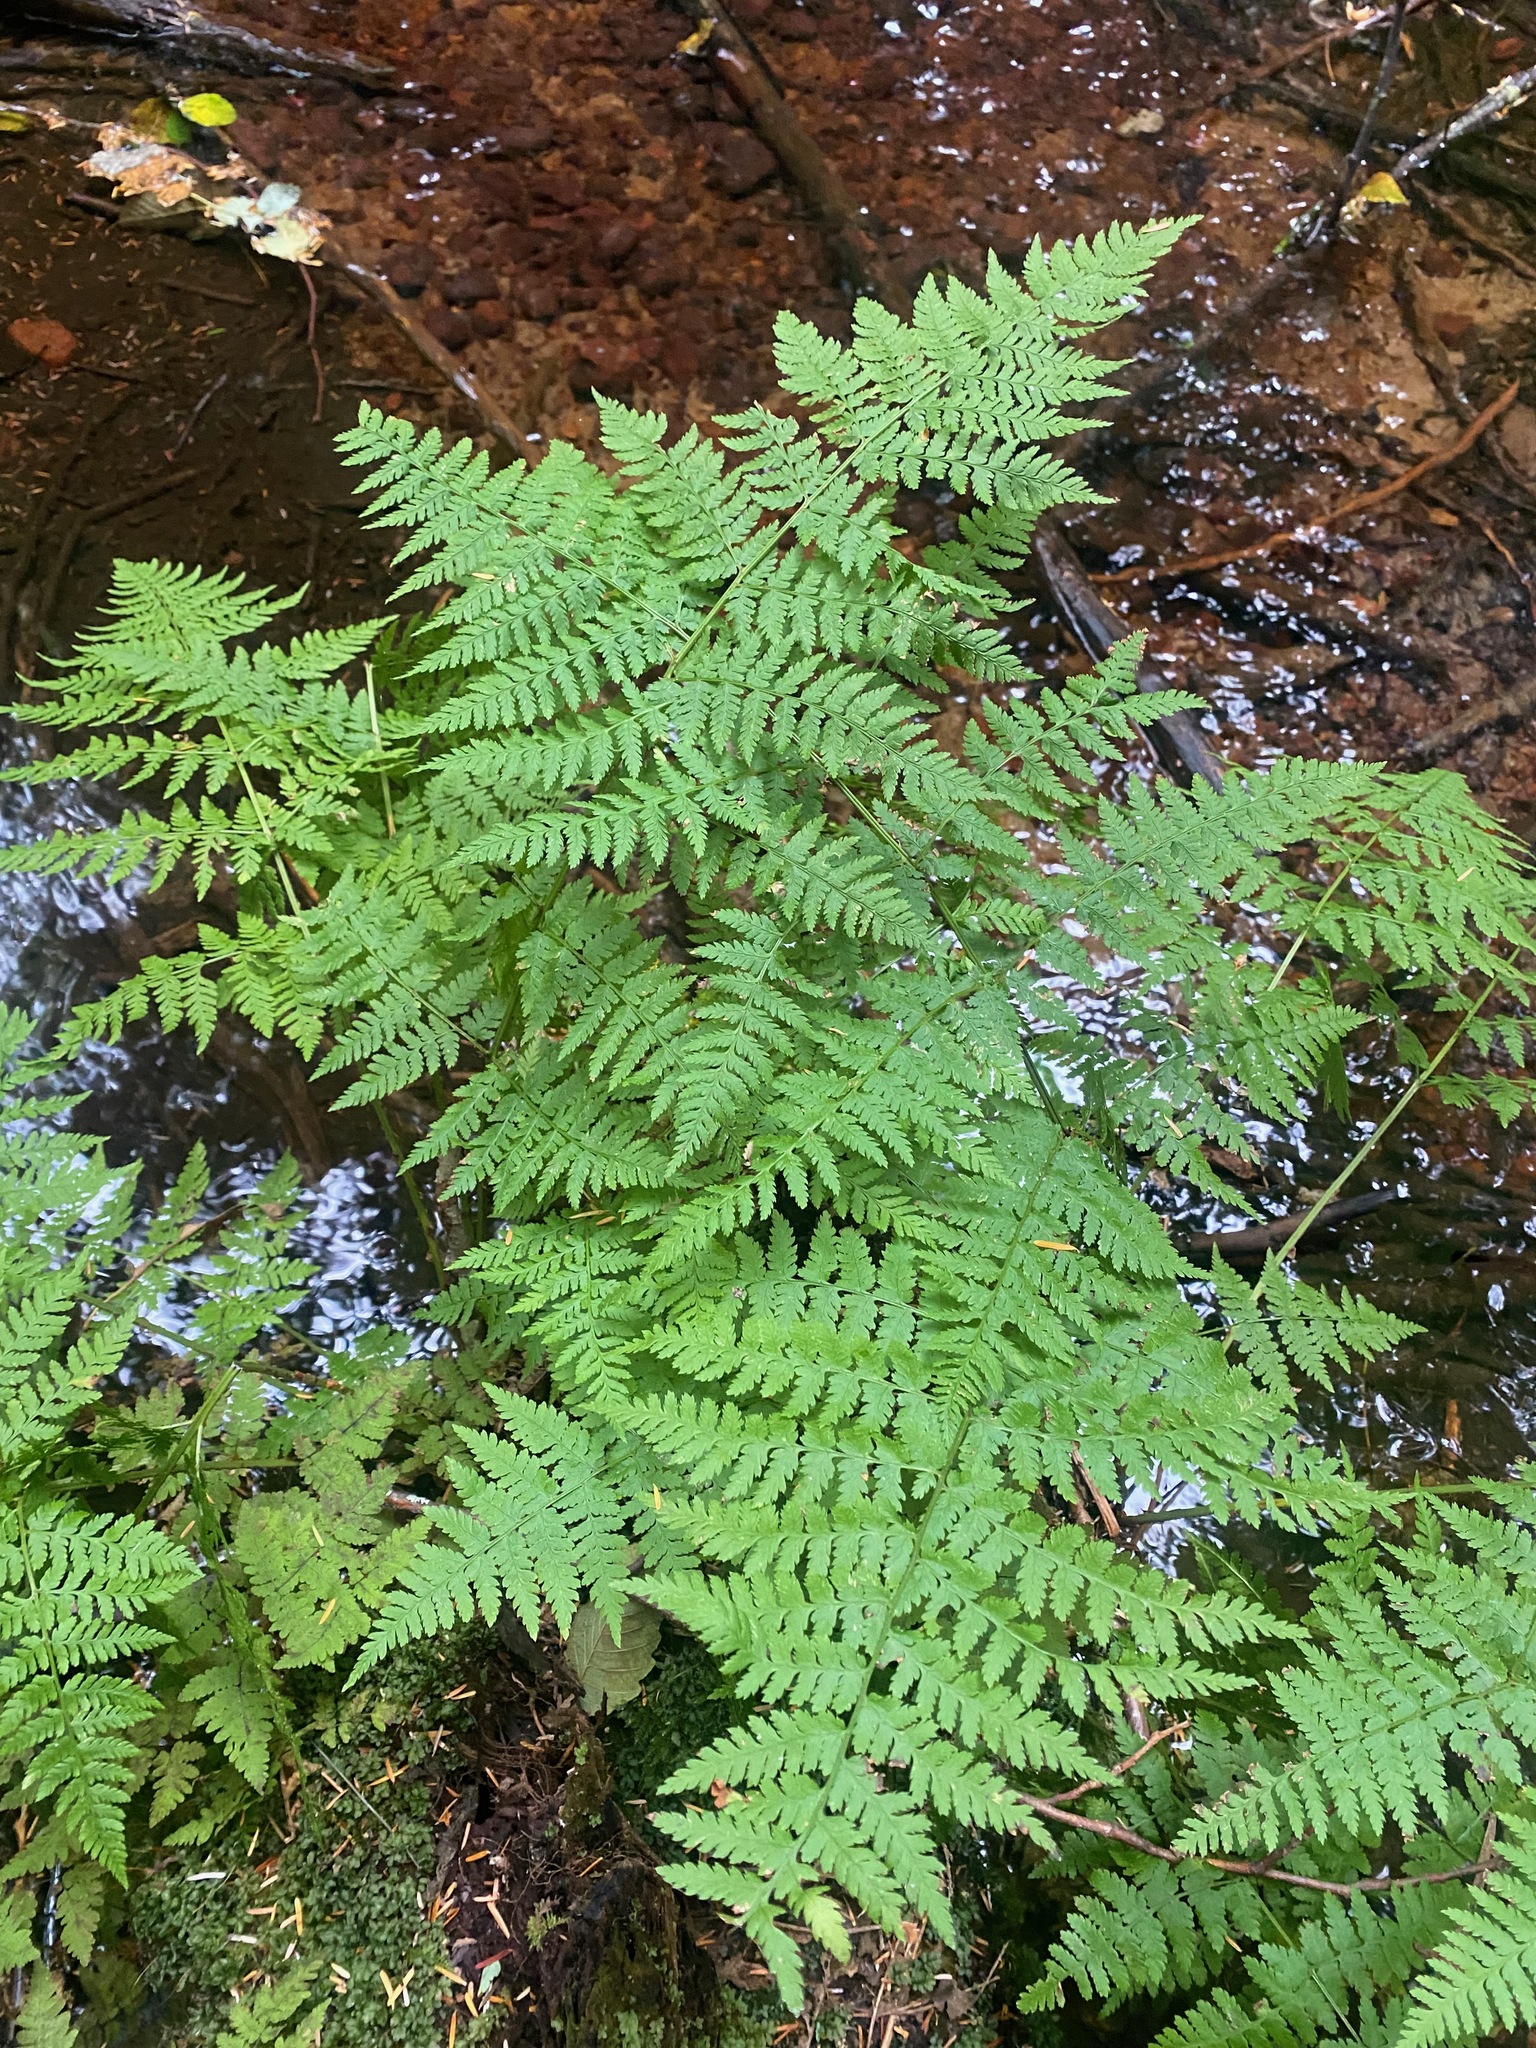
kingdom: Plantae
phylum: Tracheophyta
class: Polypodiopsida
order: Polypodiales
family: Dryopteridaceae
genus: Dryopteris
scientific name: Dryopteris expansa
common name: Northern buckler fern
